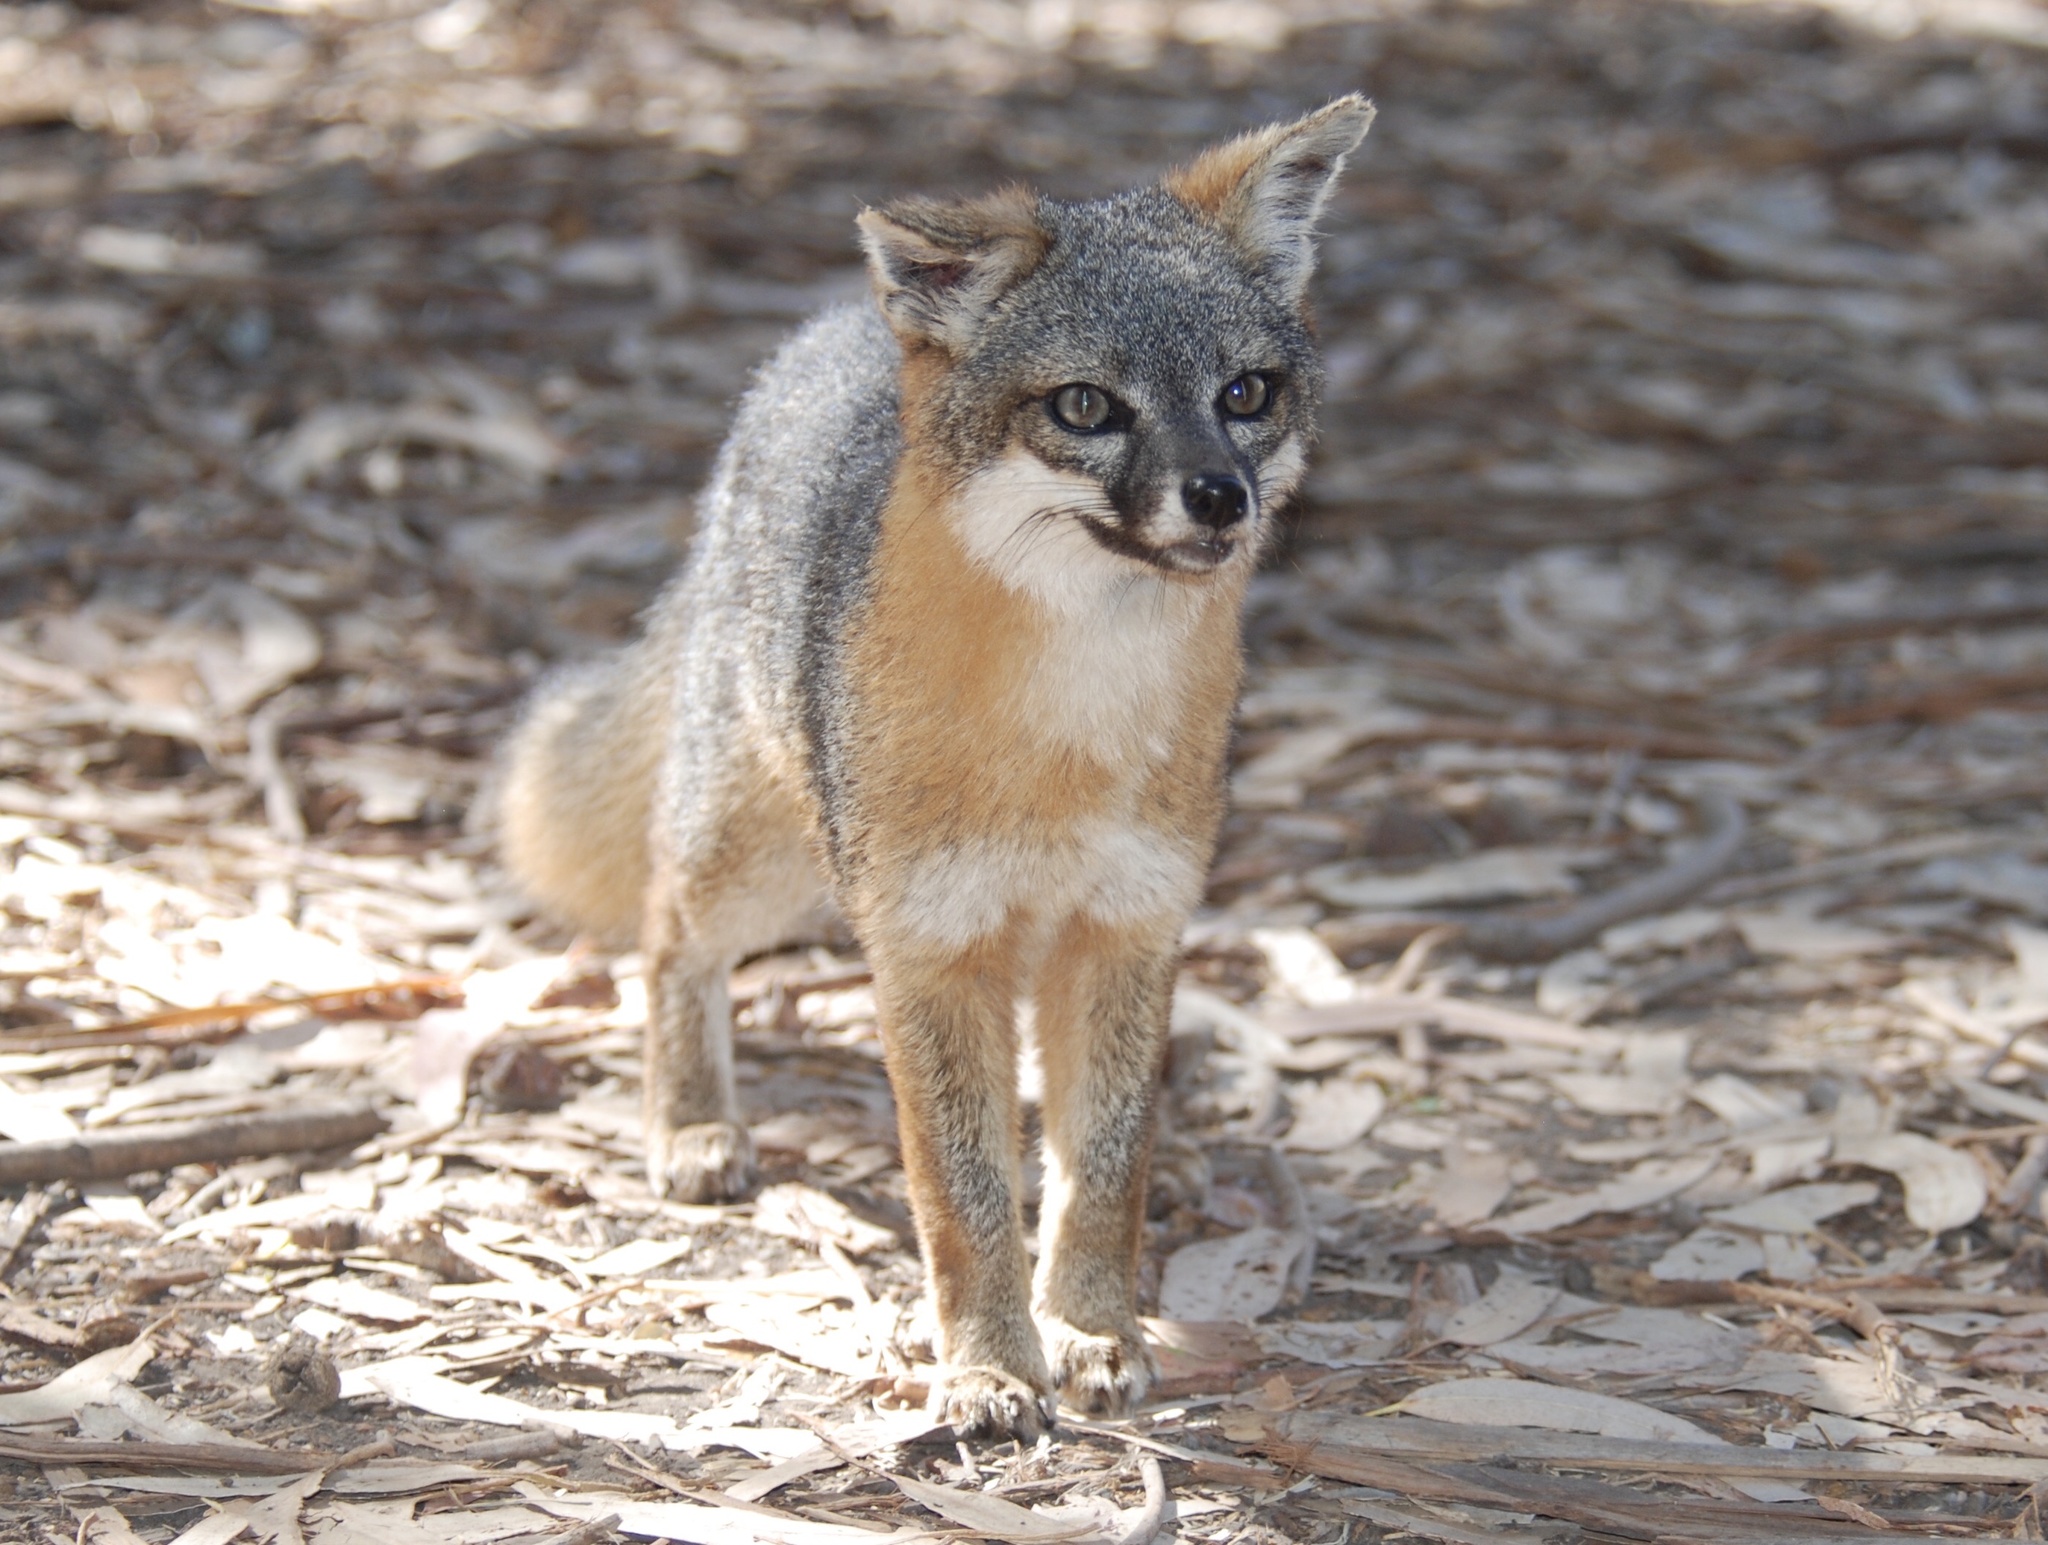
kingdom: Animalia
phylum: Chordata
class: Mammalia
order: Carnivora
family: Canidae
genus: Urocyon
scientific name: Urocyon littoralis
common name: Island gray fox
